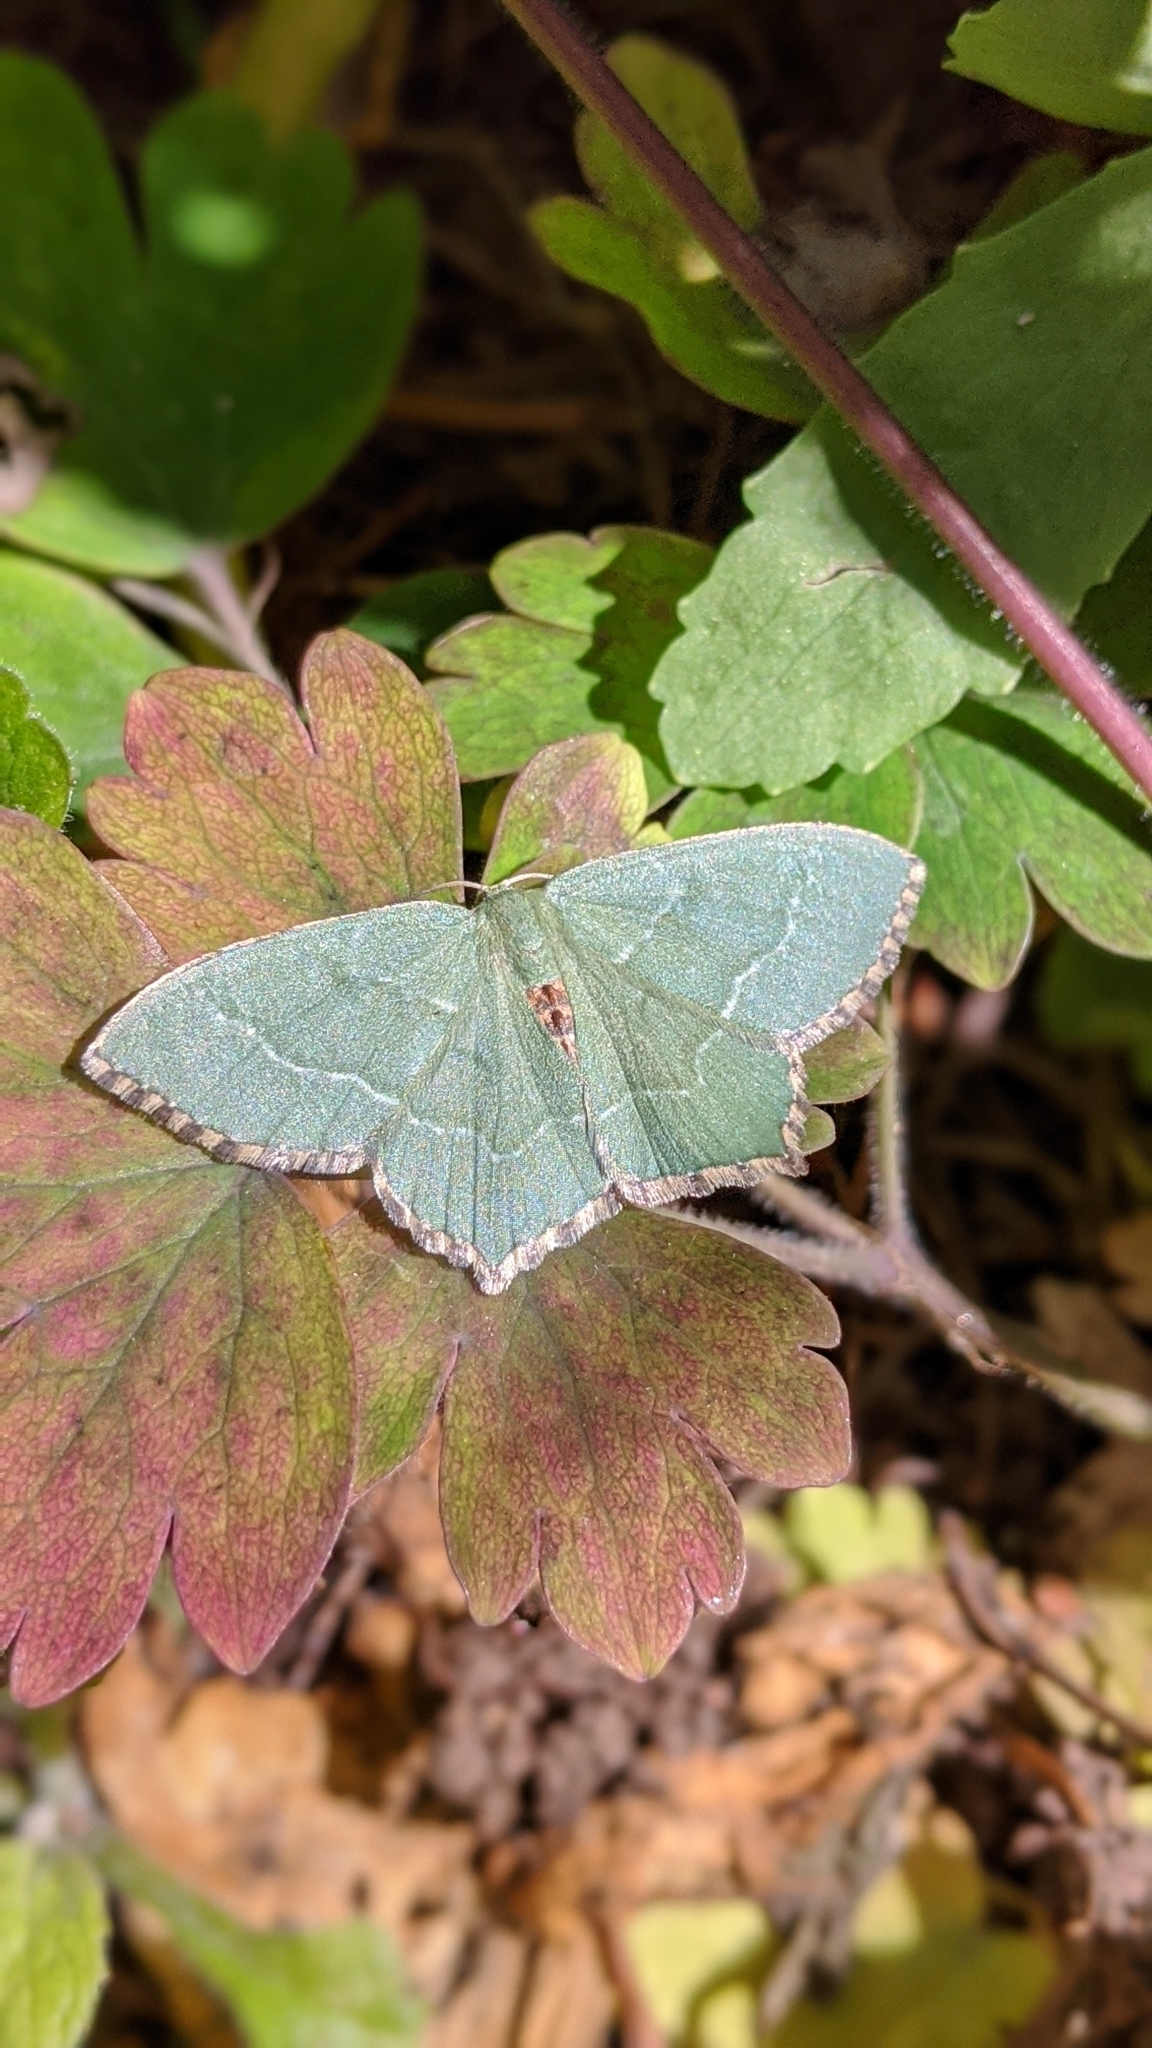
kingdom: Animalia
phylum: Arthropoda
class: Insecta
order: Lepidoptera
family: Geometridae
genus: Hemithea
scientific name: Hemithea aestivaria
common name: Common emerald
